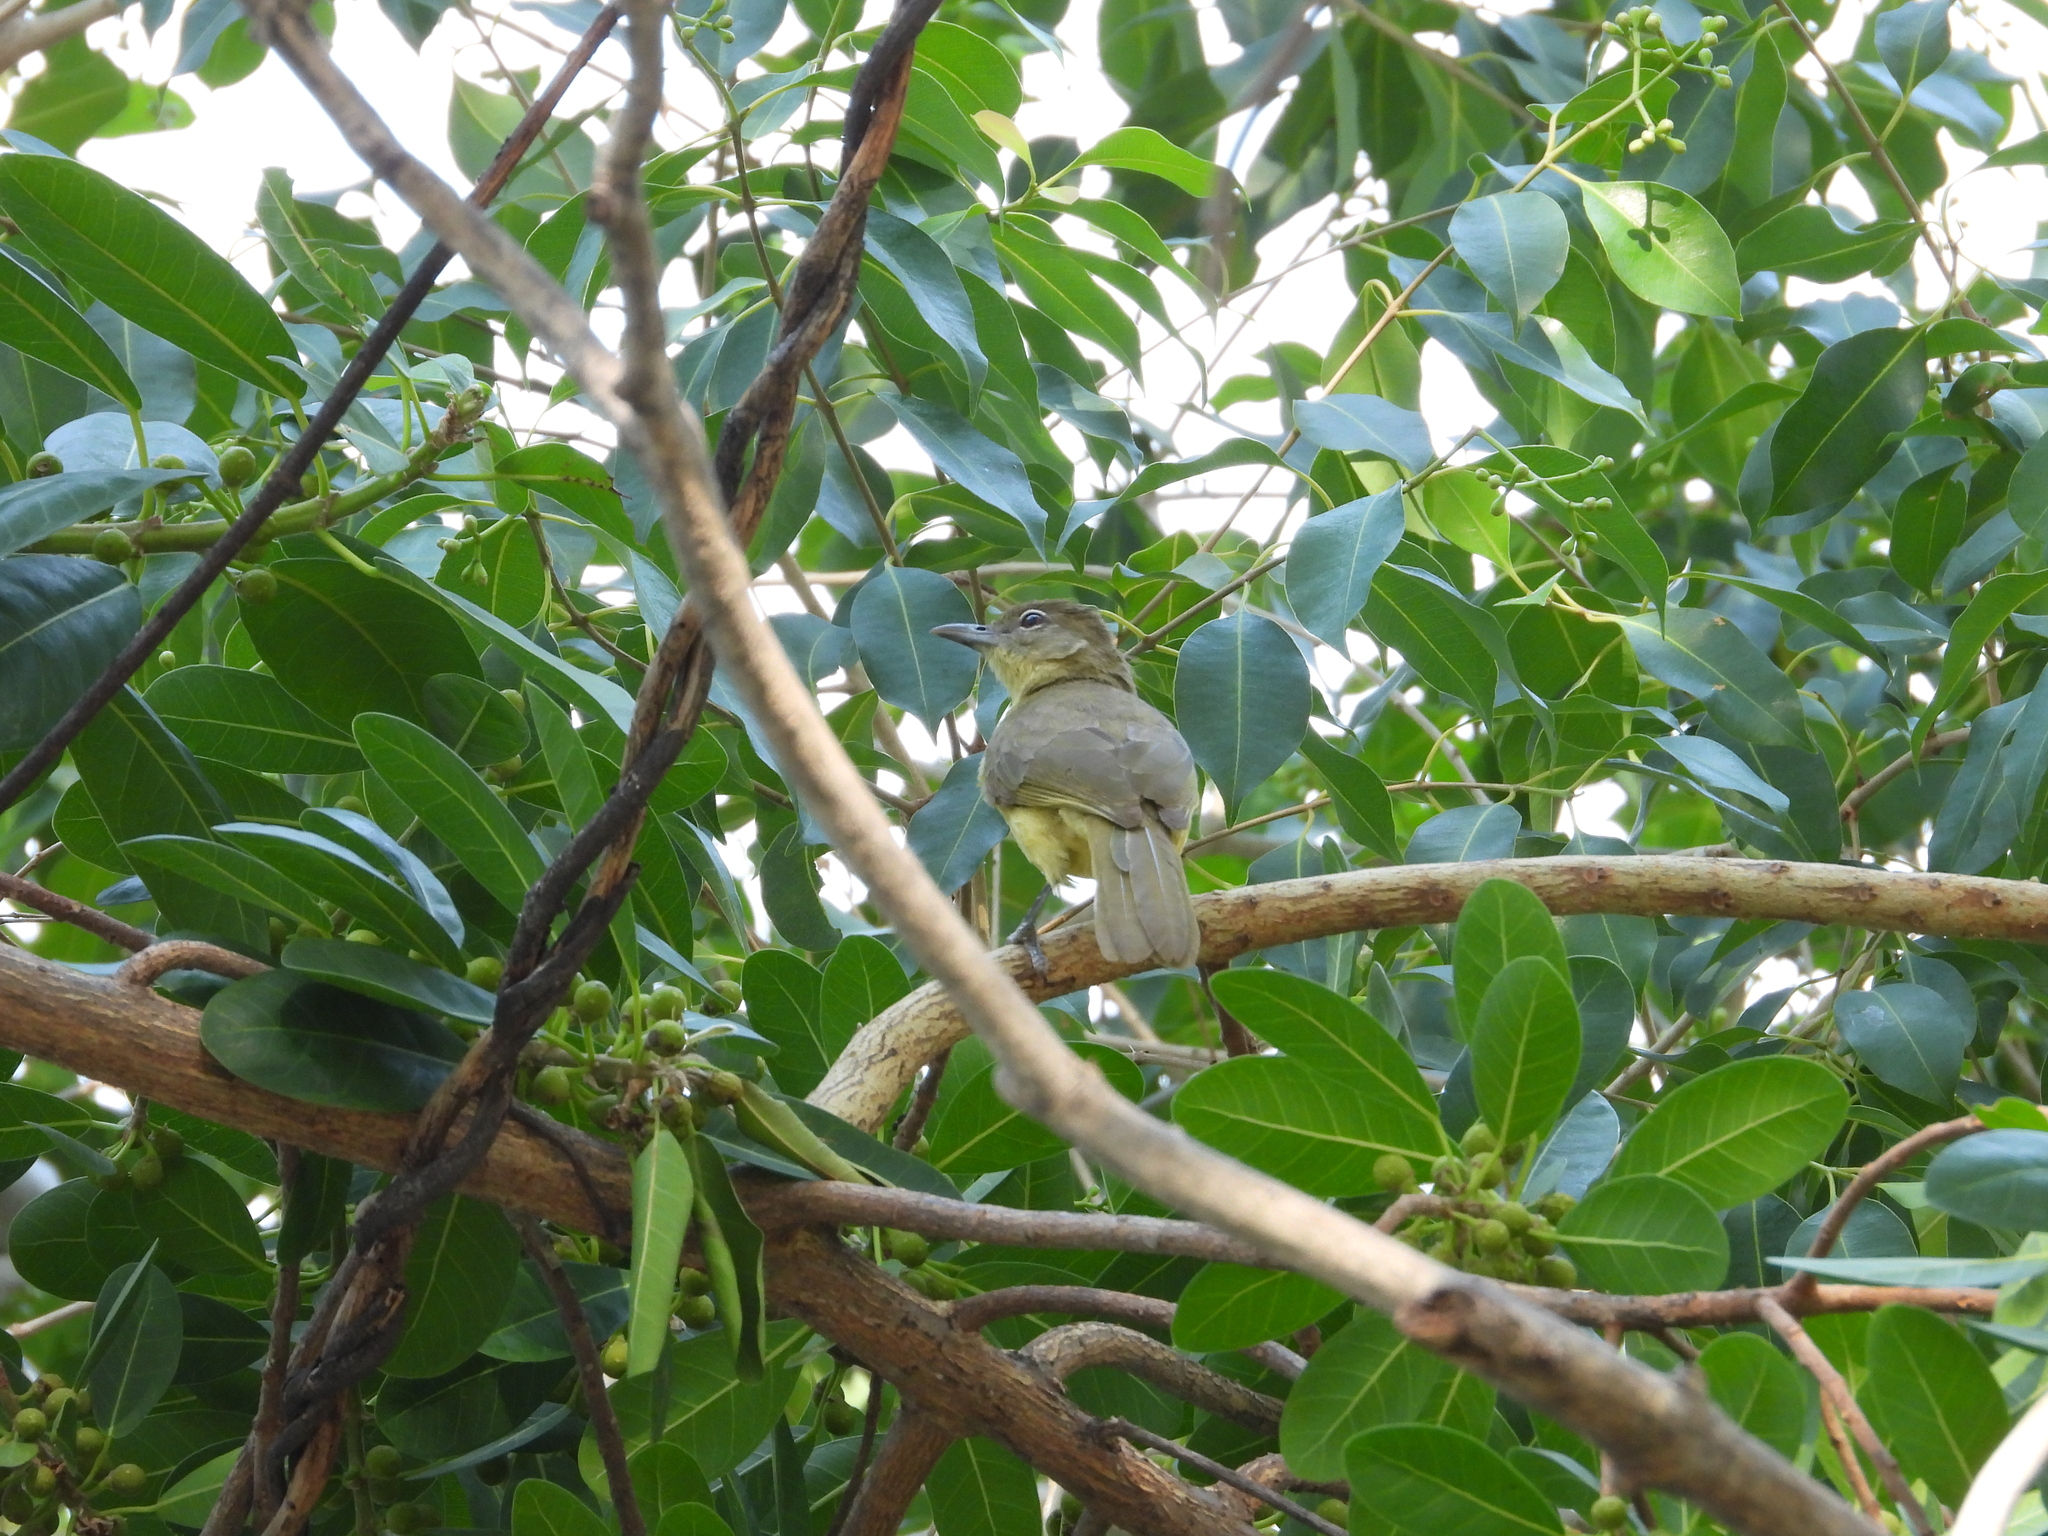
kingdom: Animalia
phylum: Chordata
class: Aves
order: Passeriformes
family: Pycnonotidae
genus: Chlorocichla
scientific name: Chlorocichla flaviventris
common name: Yellow-bellied greenbul
